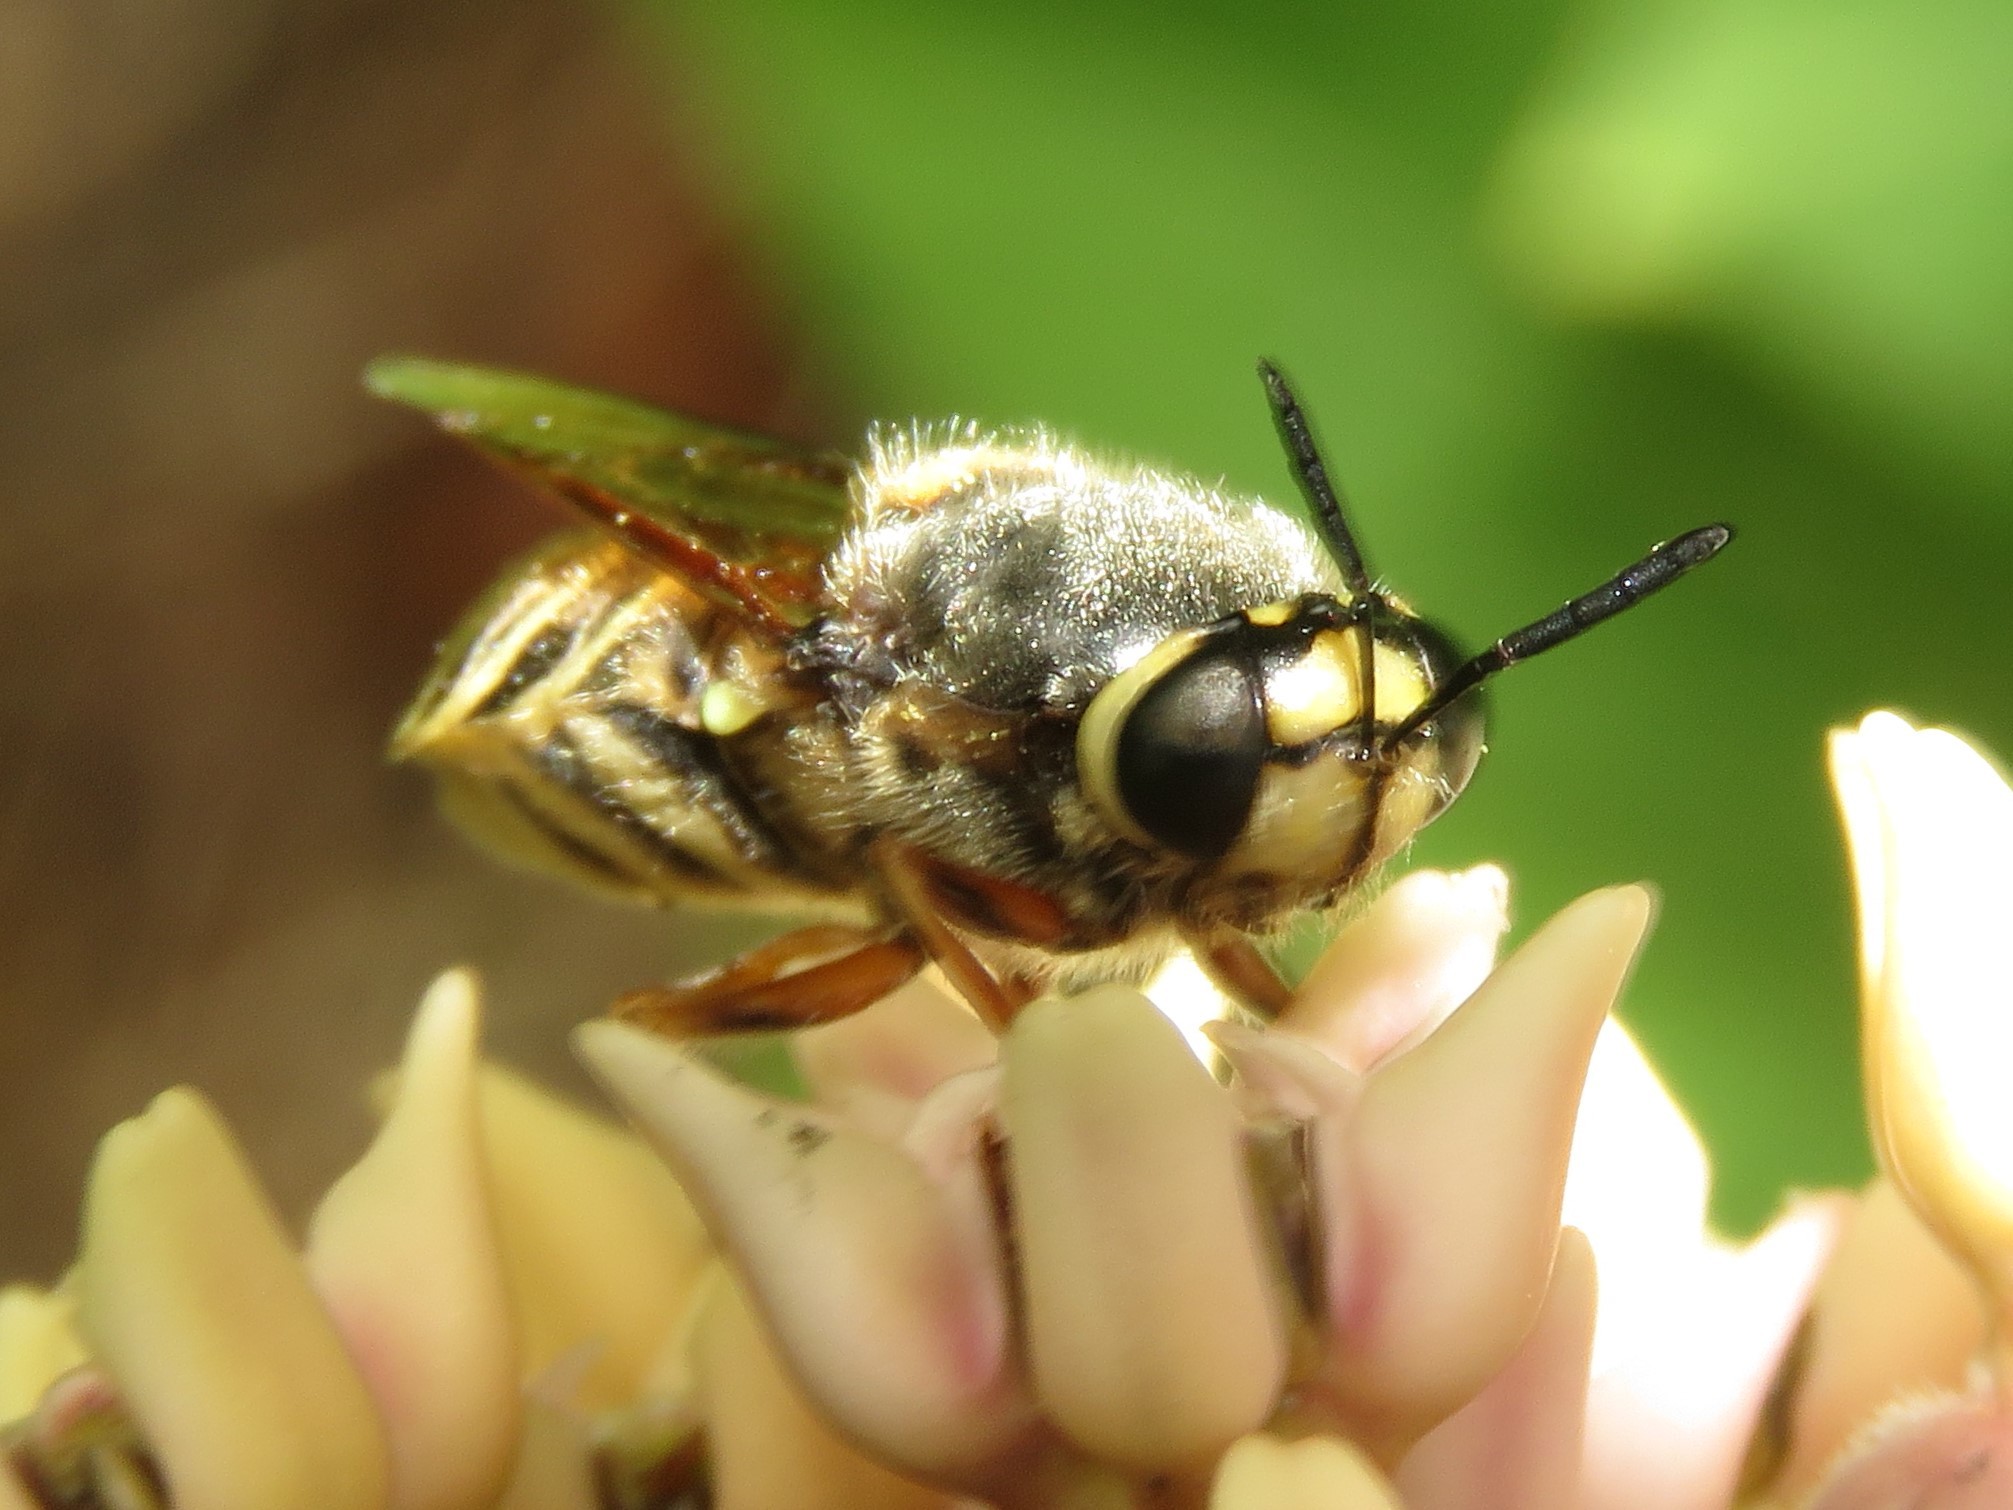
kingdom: Animalia
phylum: Arthropoda
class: Insecta
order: Diptera
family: Stratiomyidae
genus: Stratiomys
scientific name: Stratiomys obesa
